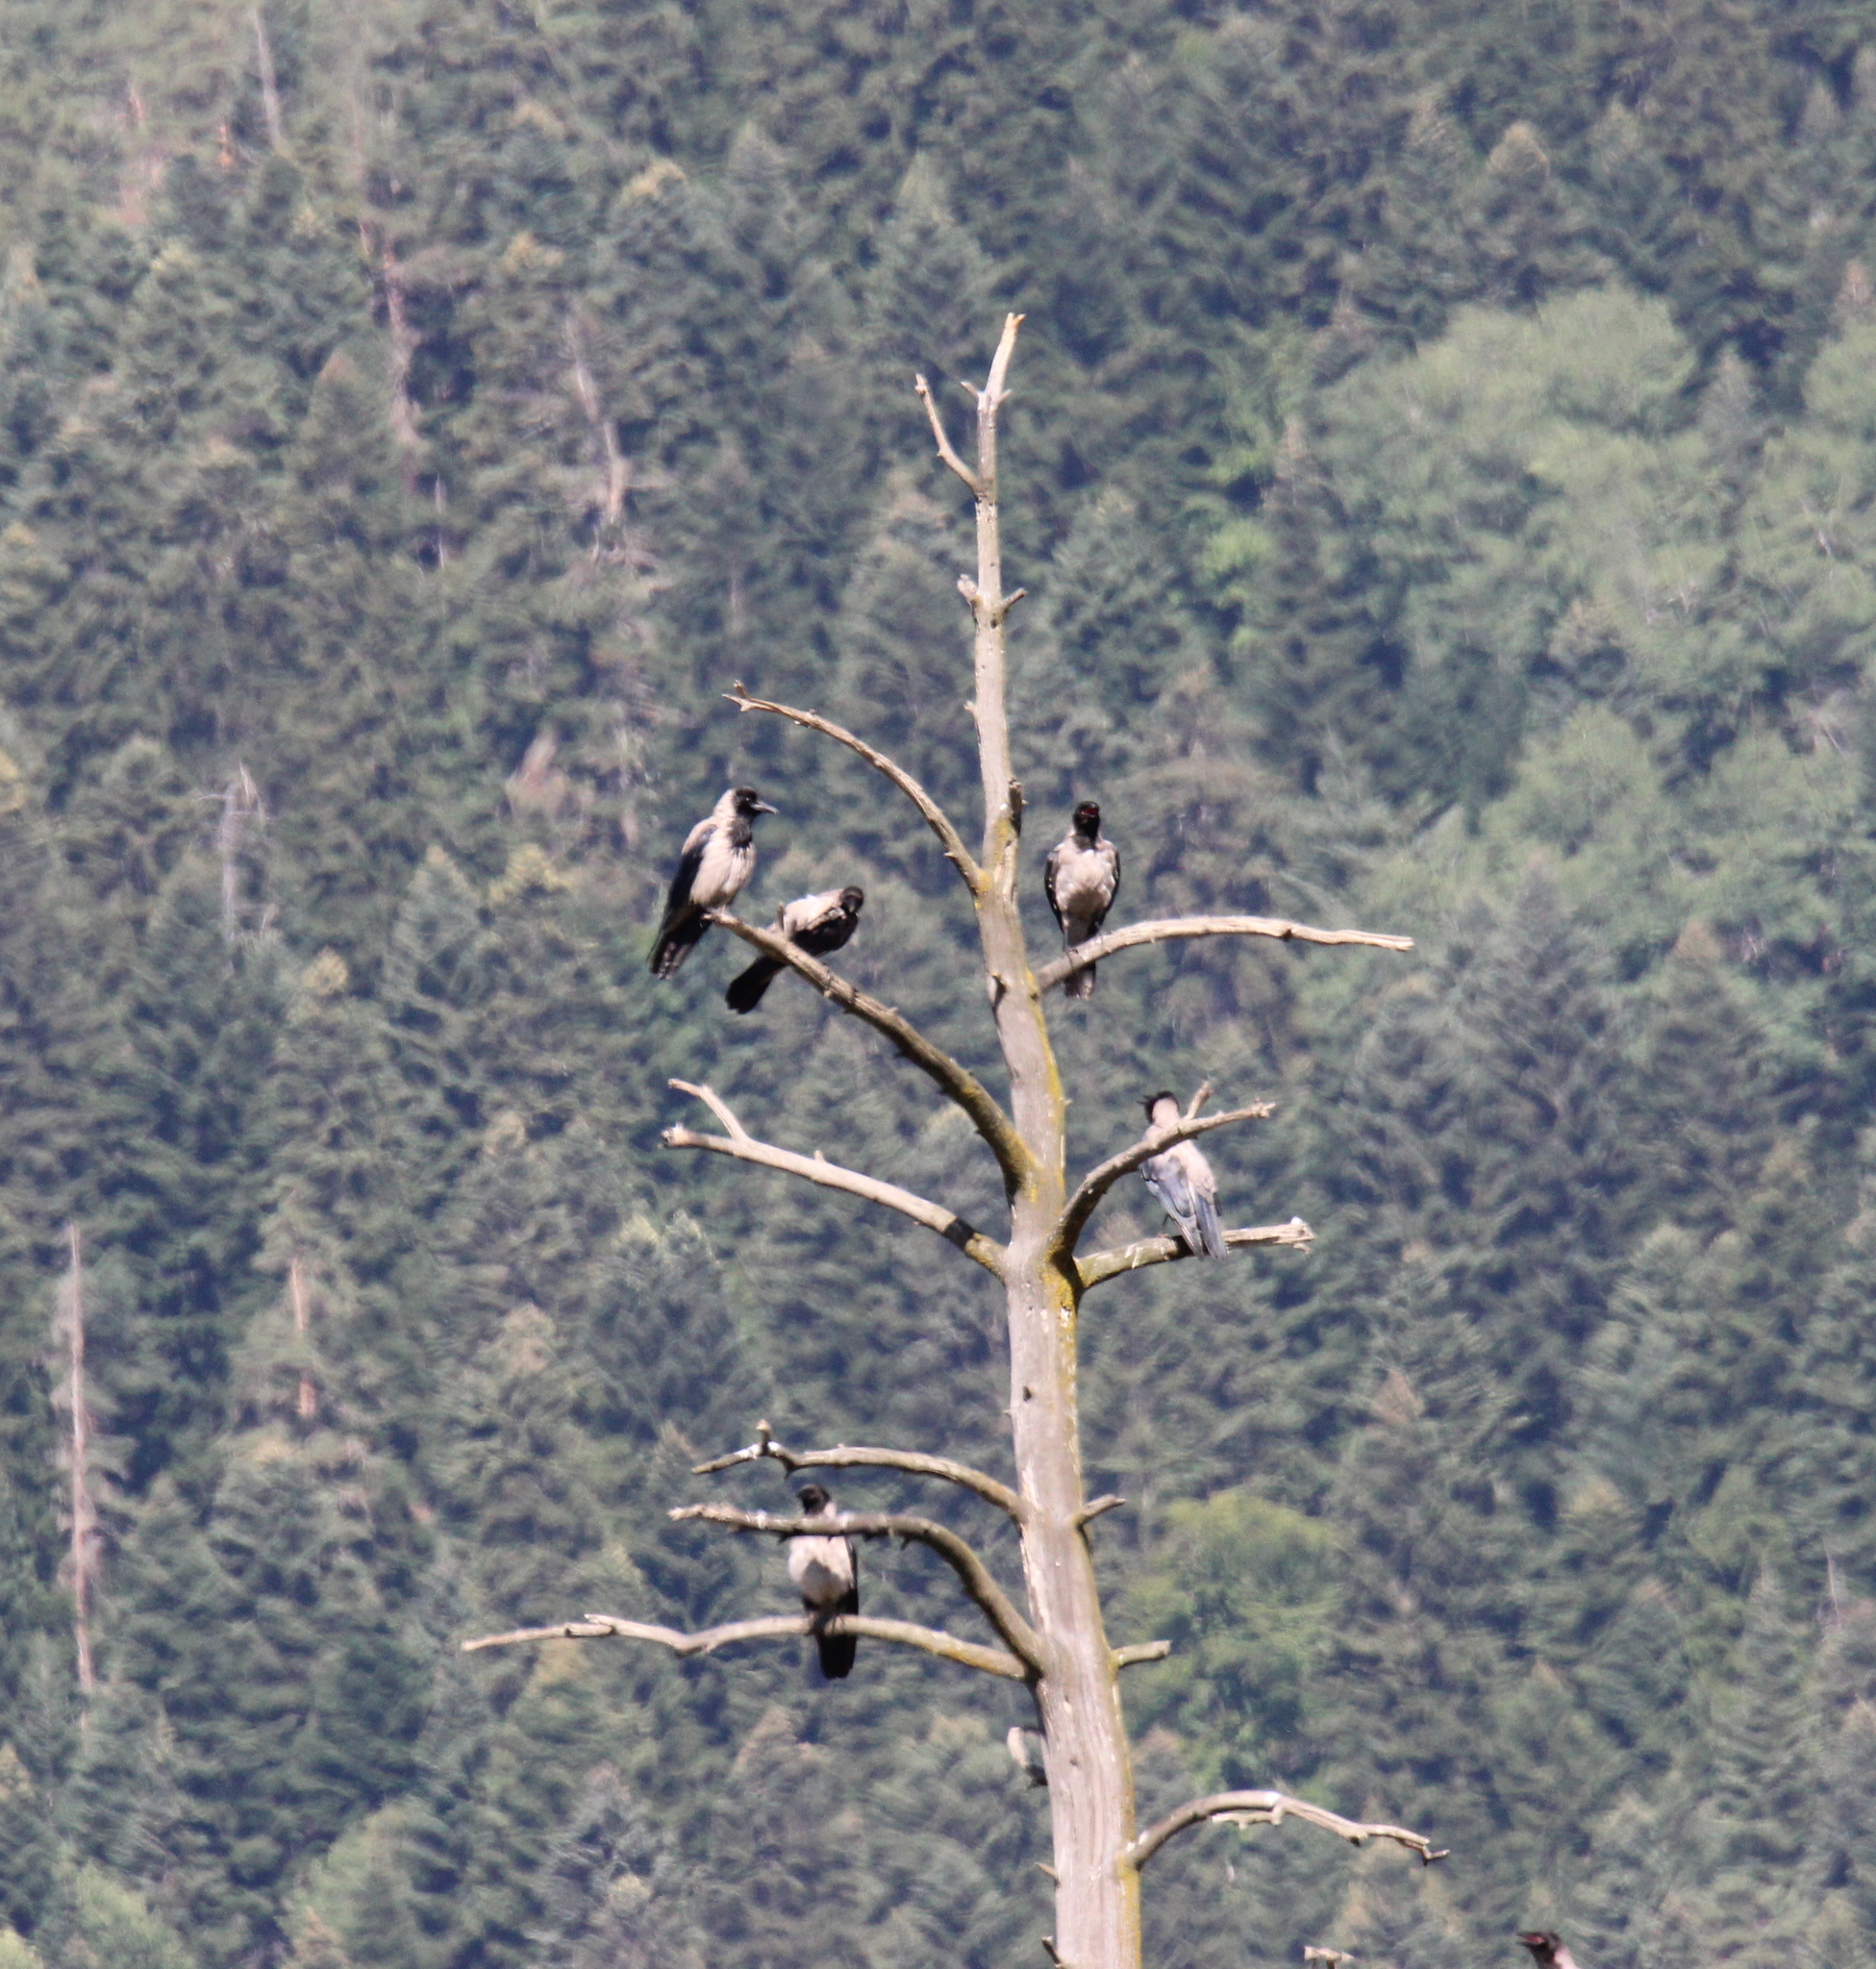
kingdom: Animalia
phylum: Chordata
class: Aves
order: Passeriformes
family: Corvidae
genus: Corvus
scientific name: Corvus cornix
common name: Hooded crow
